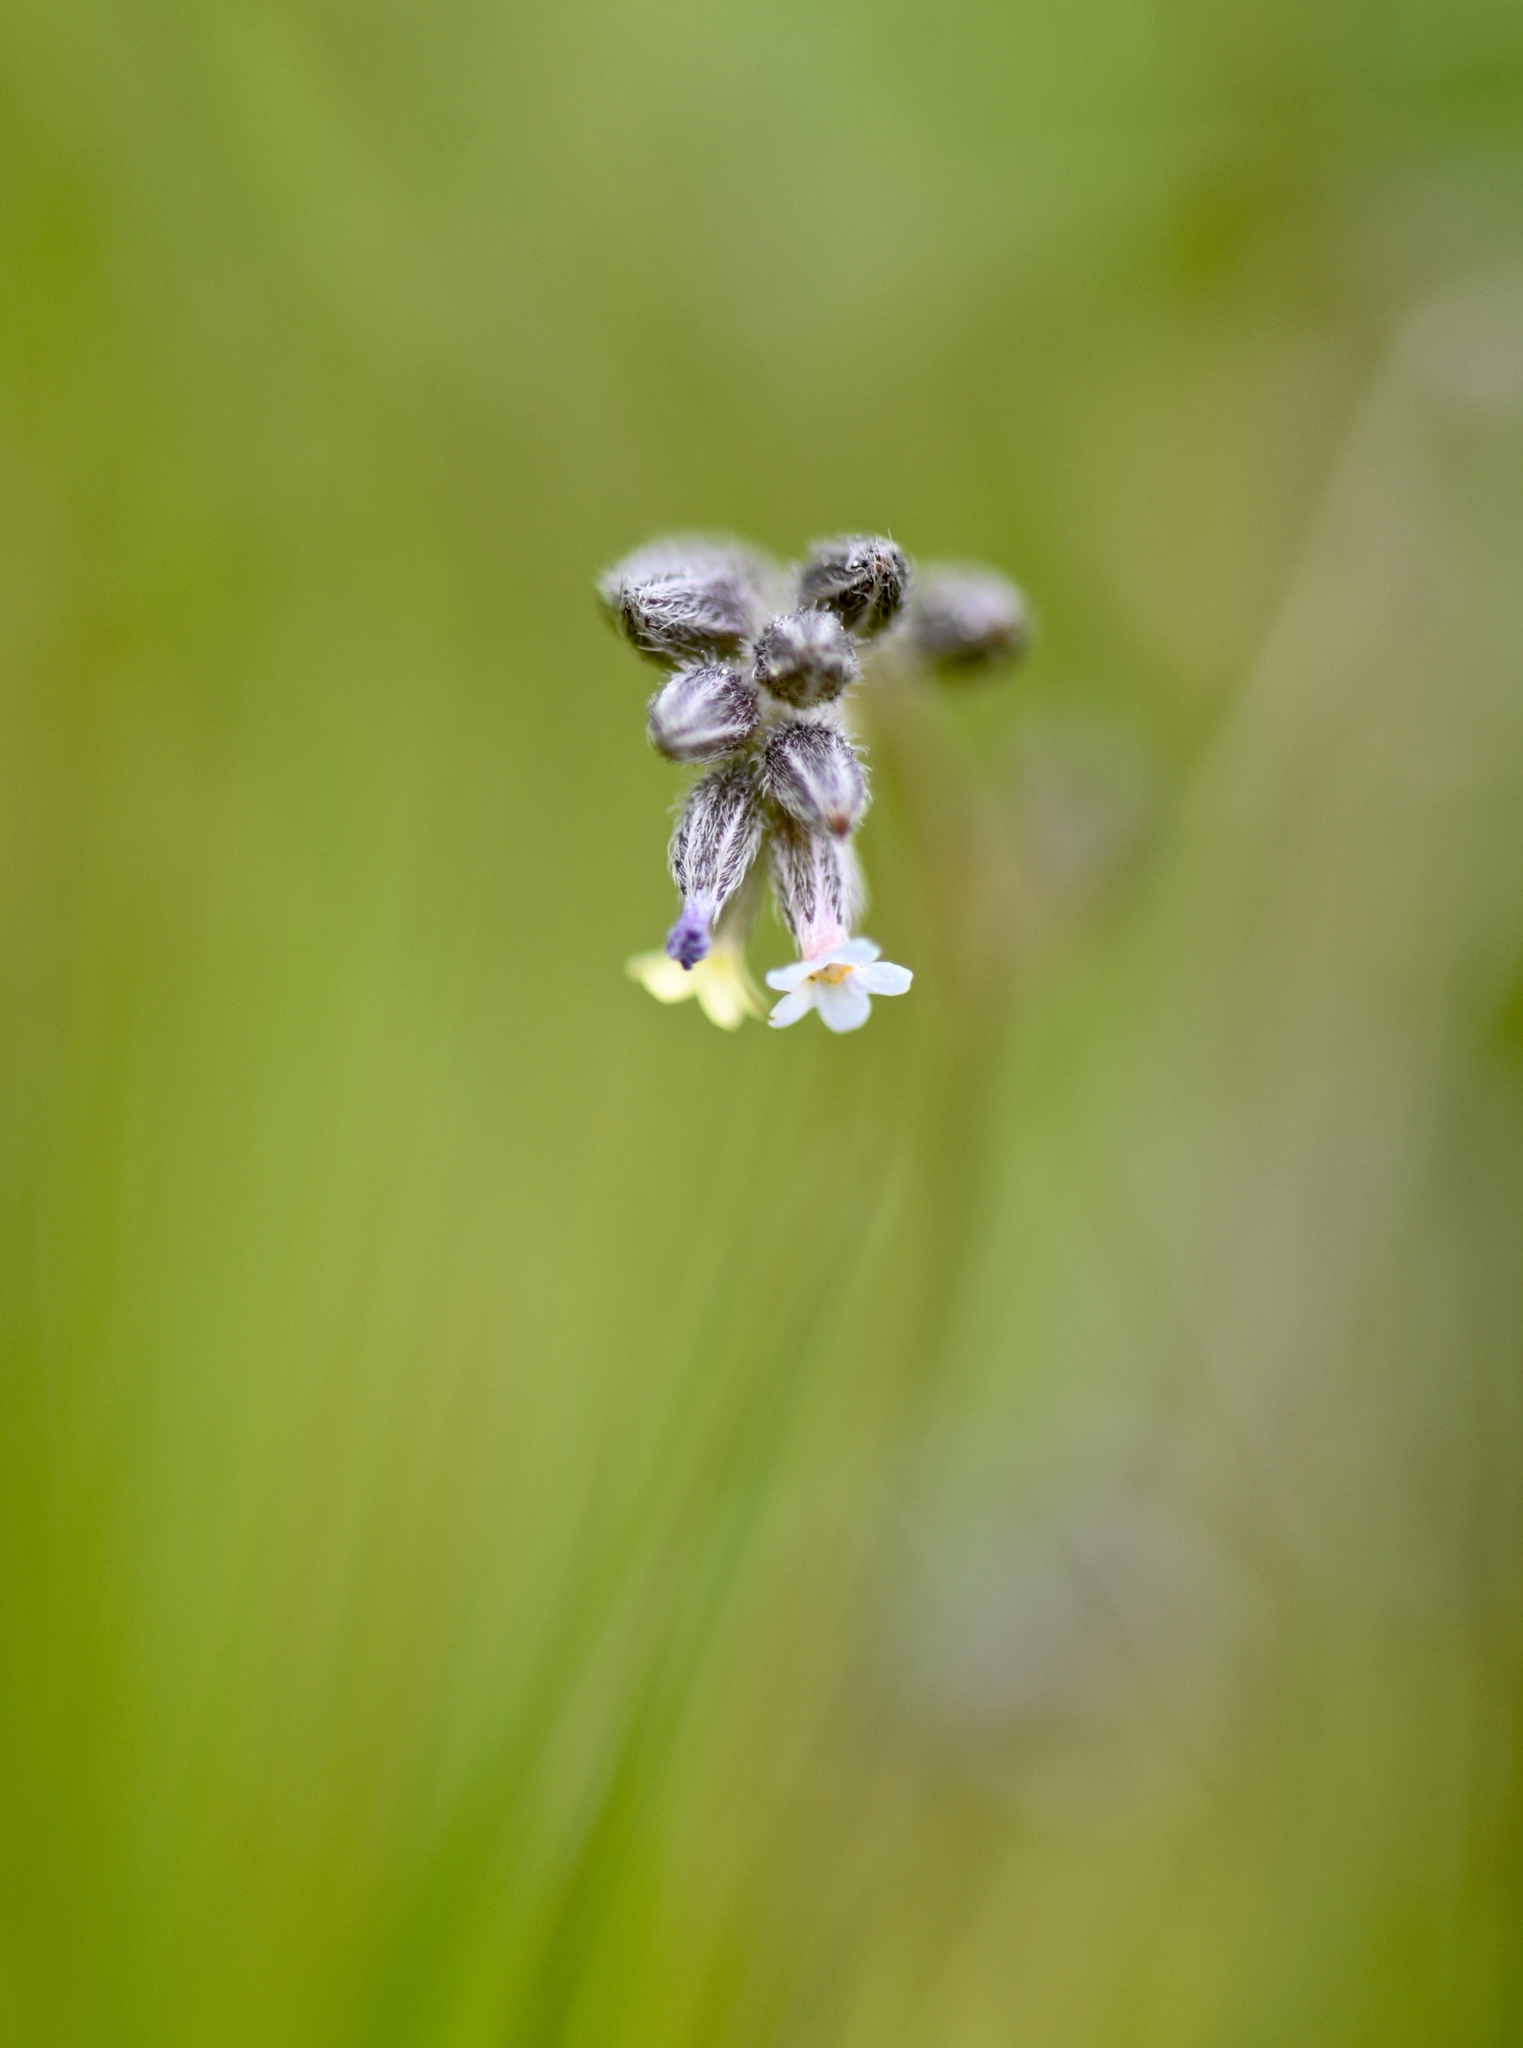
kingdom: Plantae
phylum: Tracheophyta
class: Magnoliopsida
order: Boraginales
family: Boraginaceae
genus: Myosotis
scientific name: Myosotis discolor
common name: Changing forget-me-not
